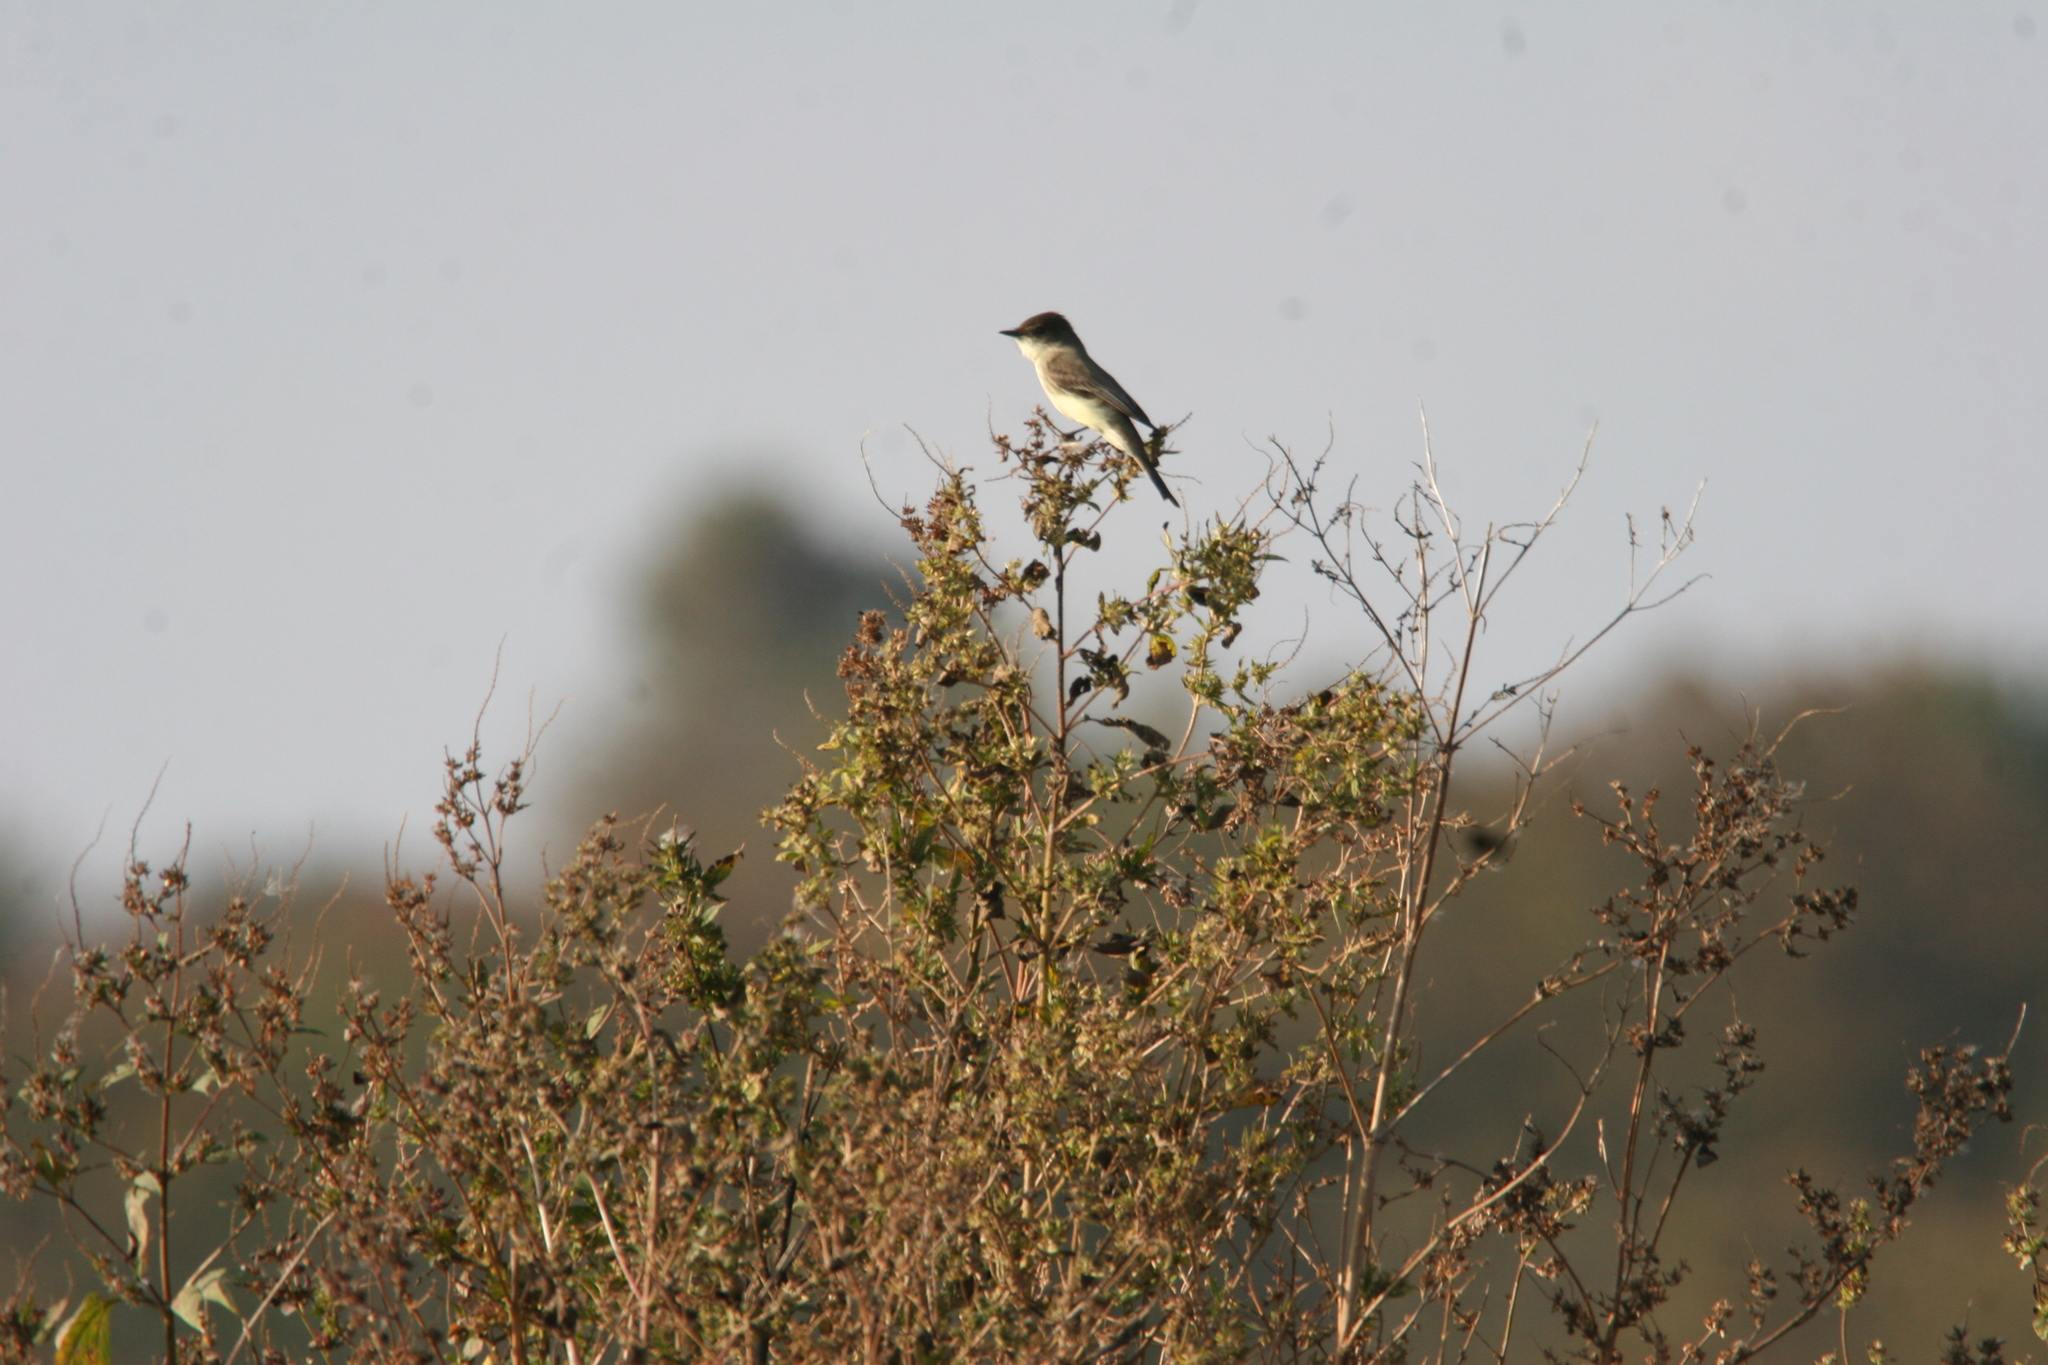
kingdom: Animalia
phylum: Chordata
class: Aves
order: Passeriformes
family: Tyrannidae
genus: Sayornis
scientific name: Sayornis phoebe
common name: Eastern phoebe
